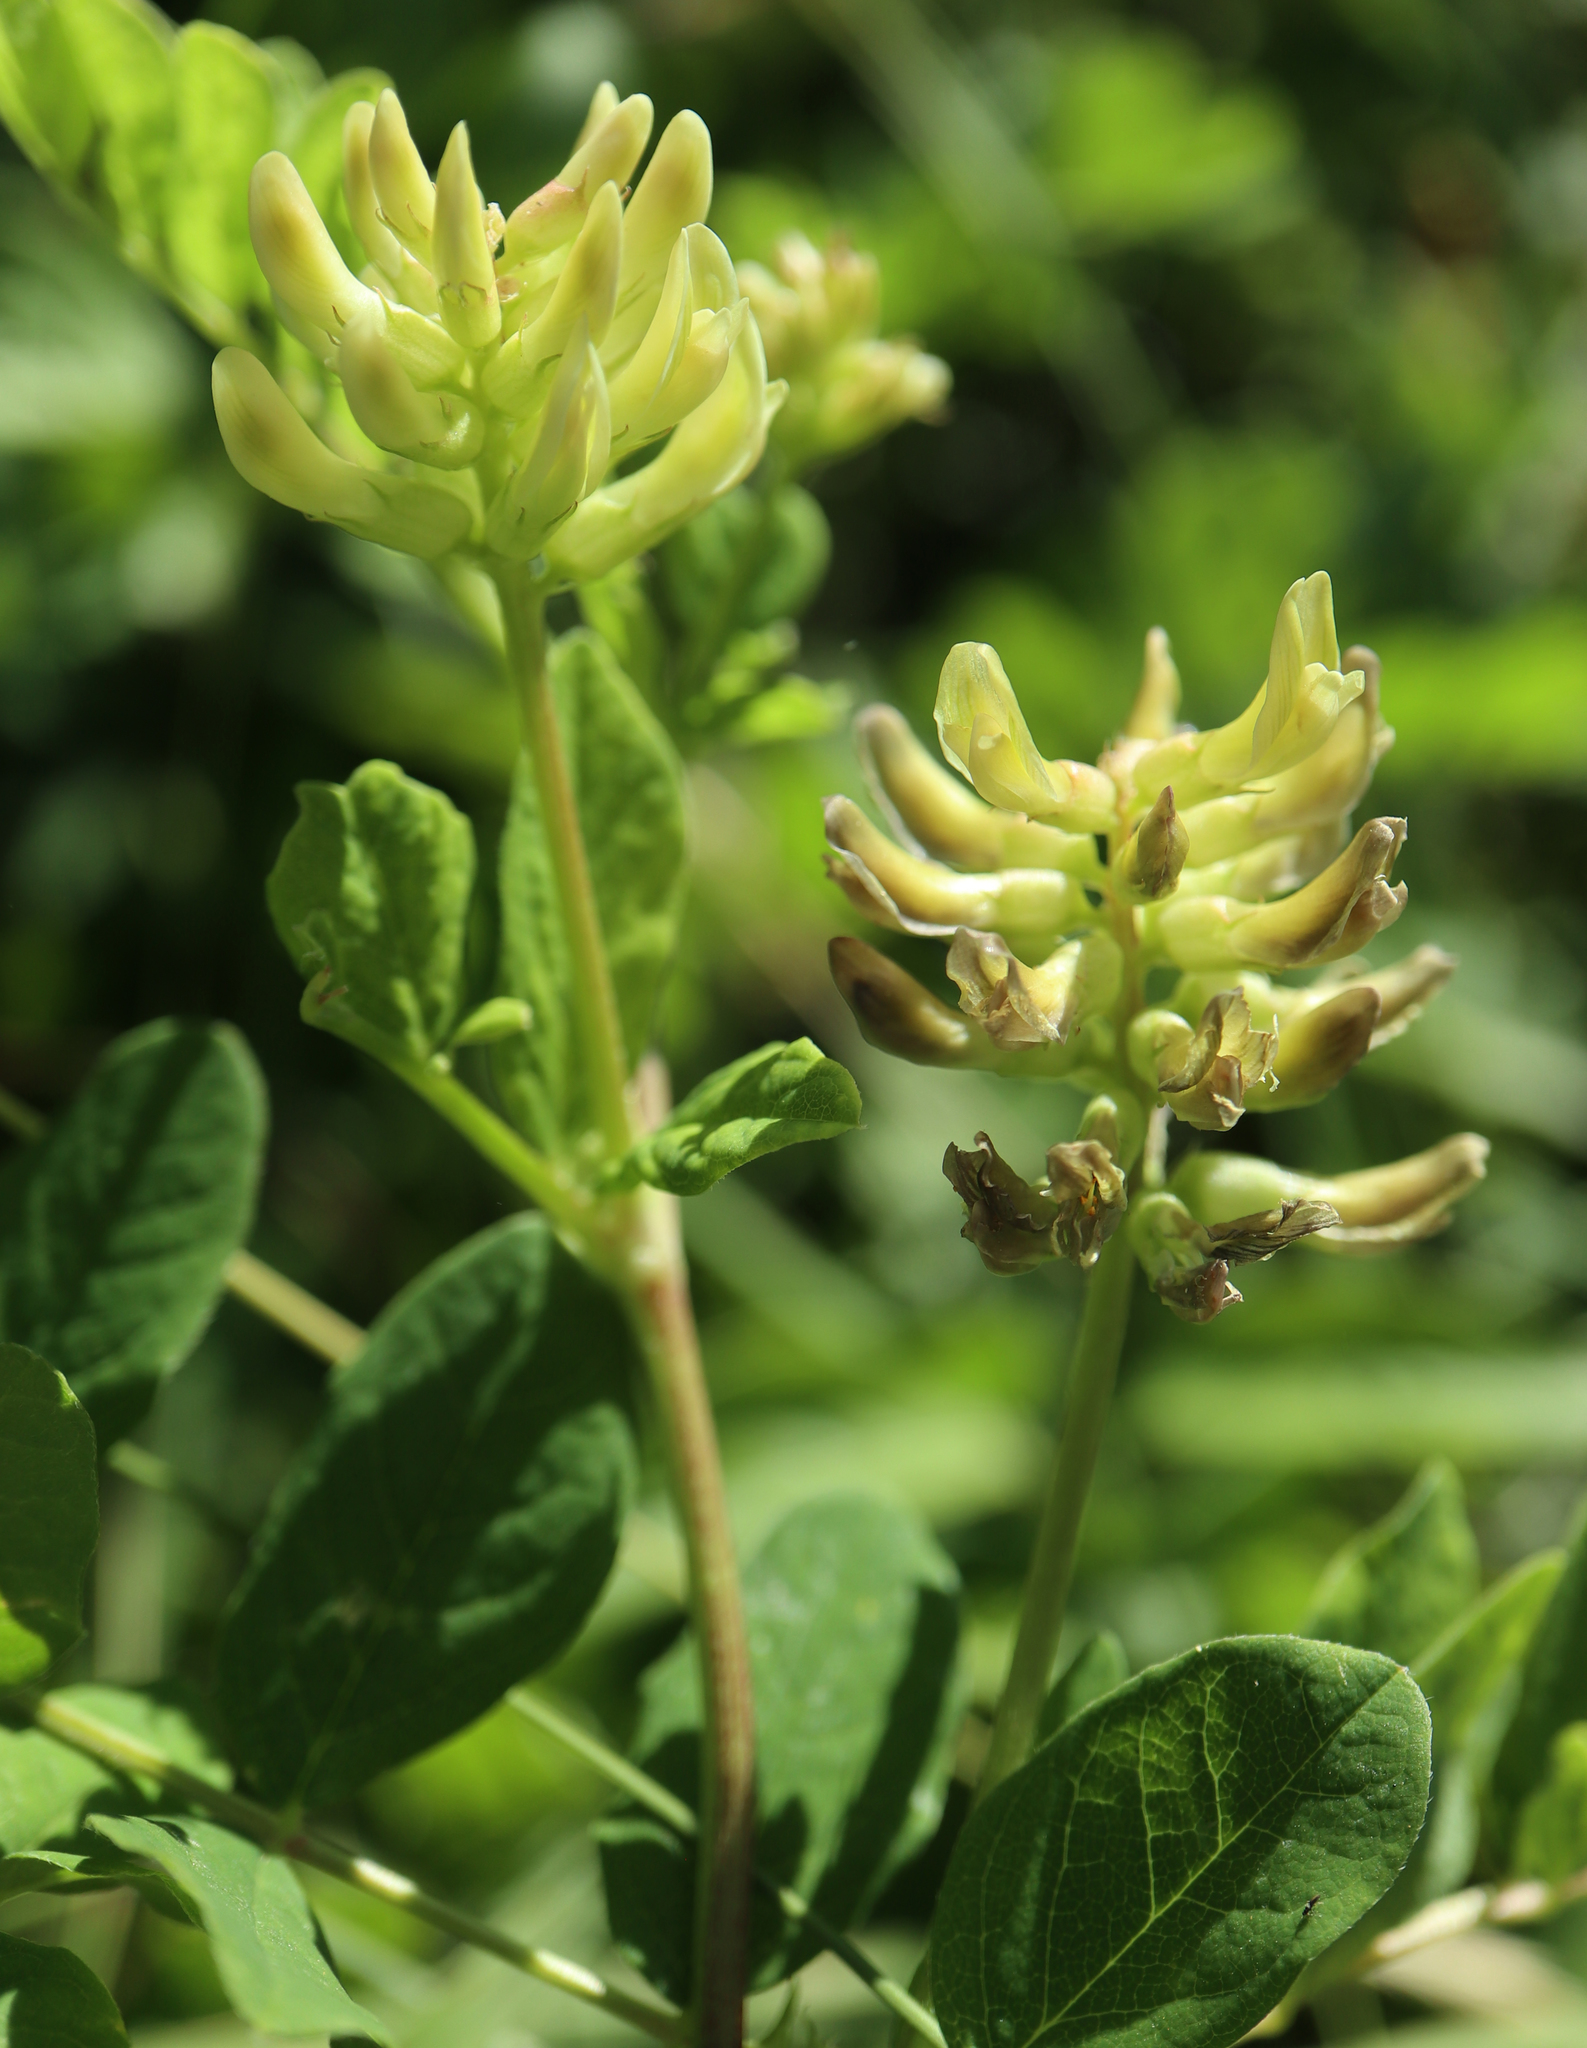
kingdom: Plantae
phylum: Tracheophyta
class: Magnoliopsida
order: Fabales
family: Fabaceae
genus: Astragalus
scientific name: Astragalus glycyphyllos
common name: Wild liquorice
